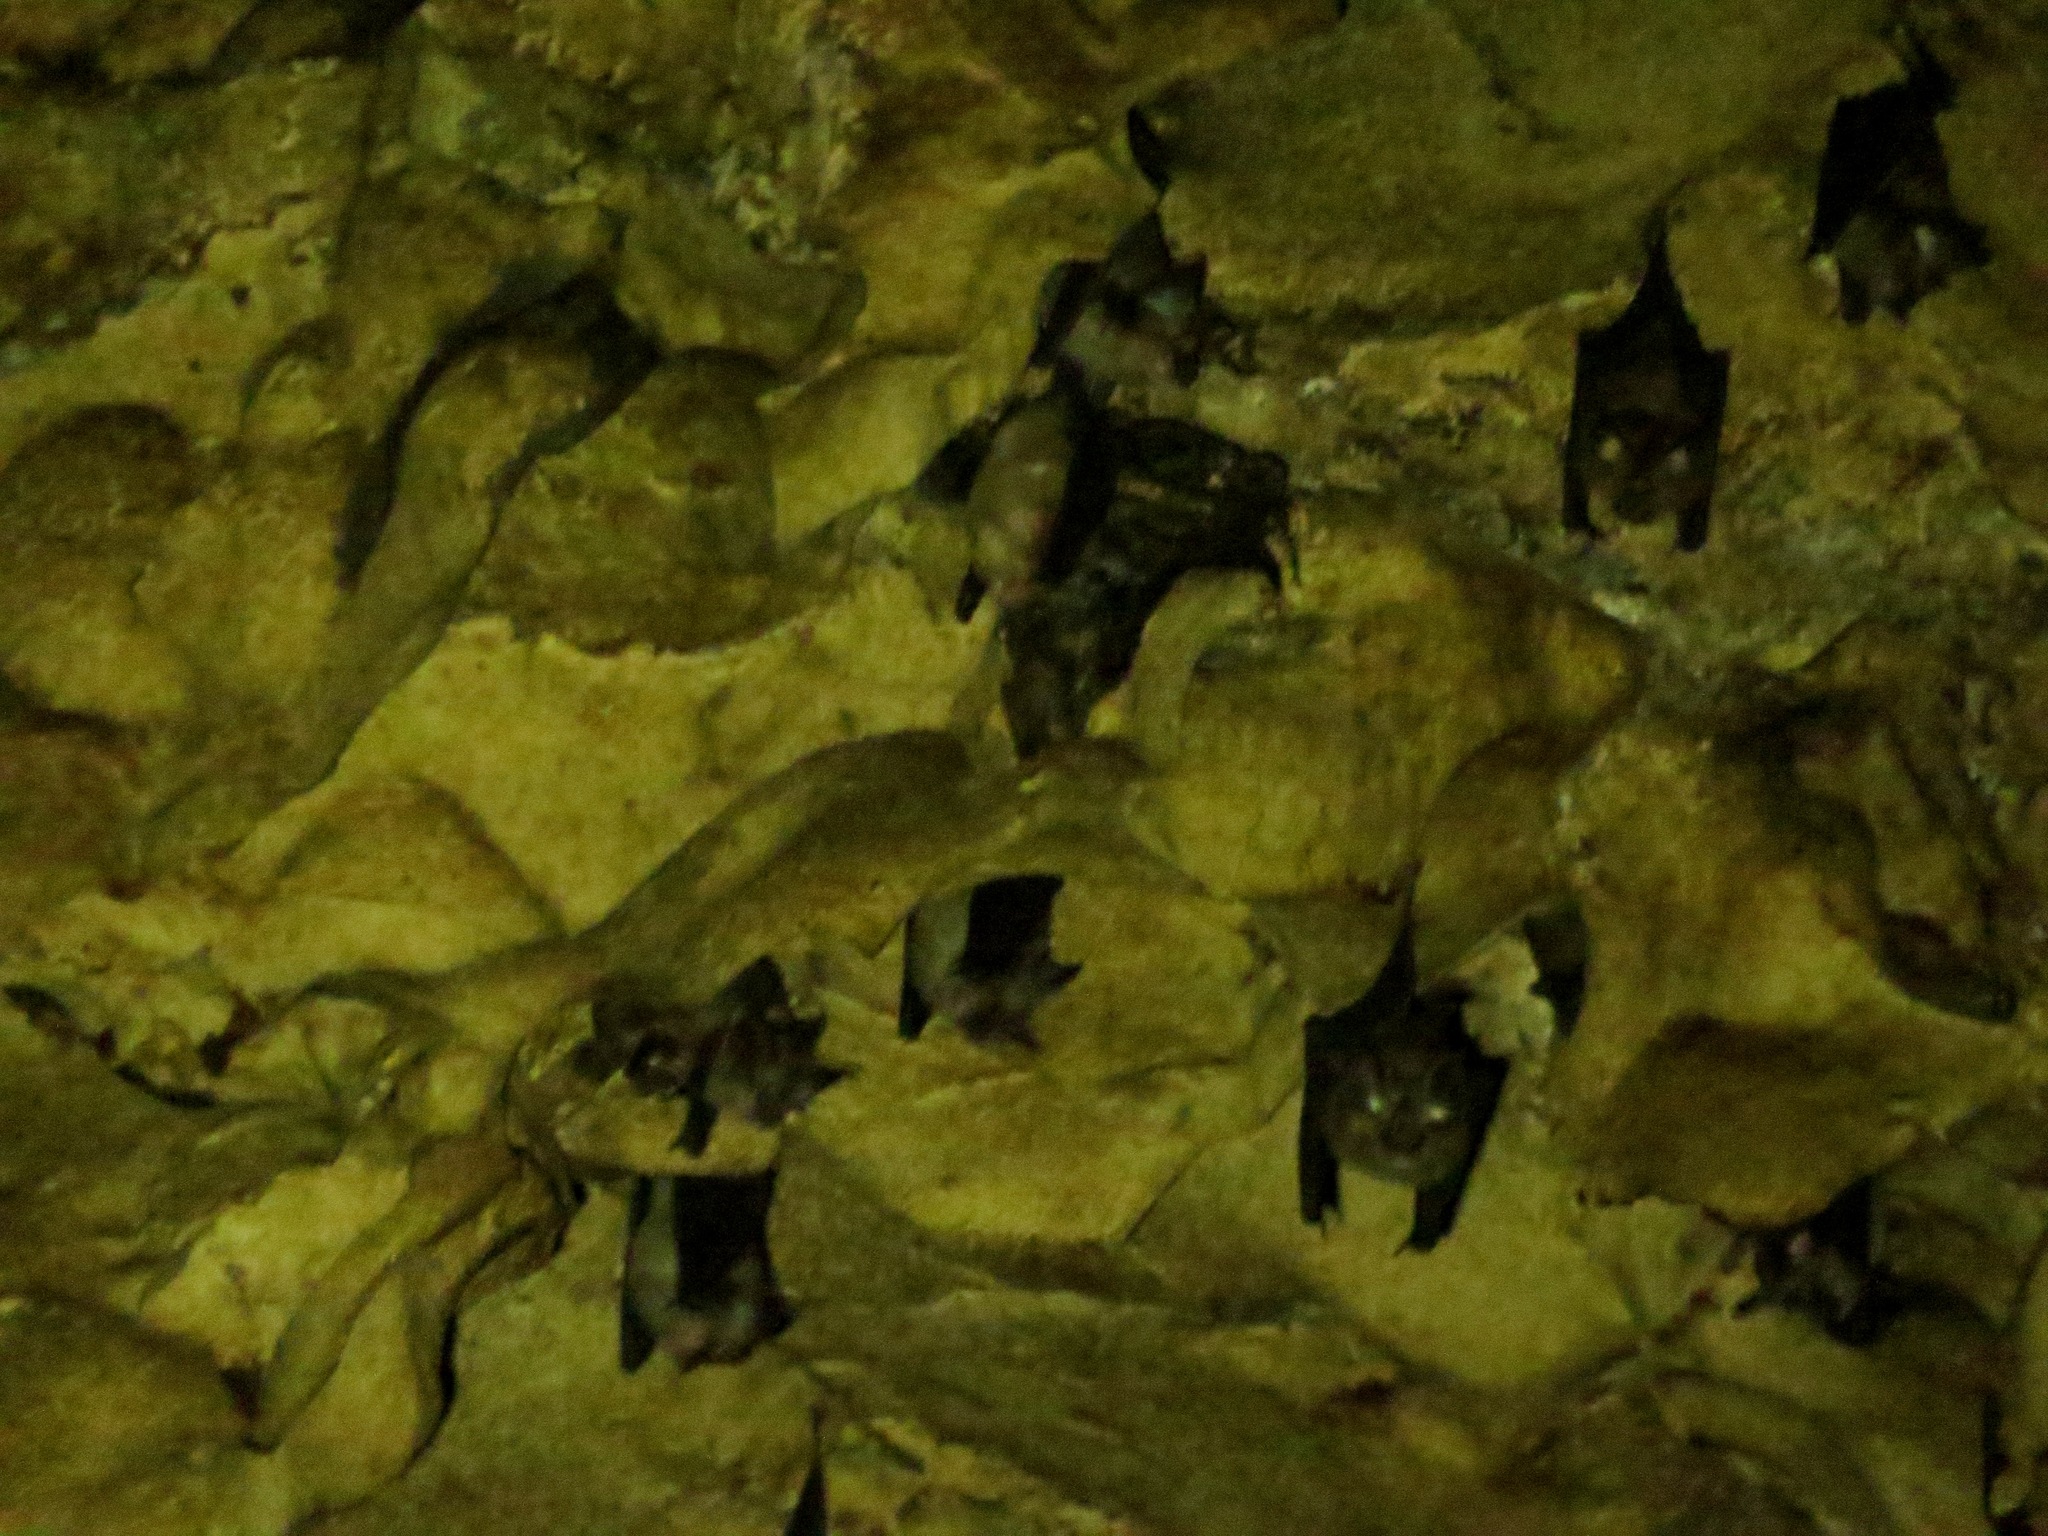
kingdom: Animalia
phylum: Chordata
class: Mammalia
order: Chiroptera
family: Rhinolophidae
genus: Rhinolophus
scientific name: Rhinolophus
